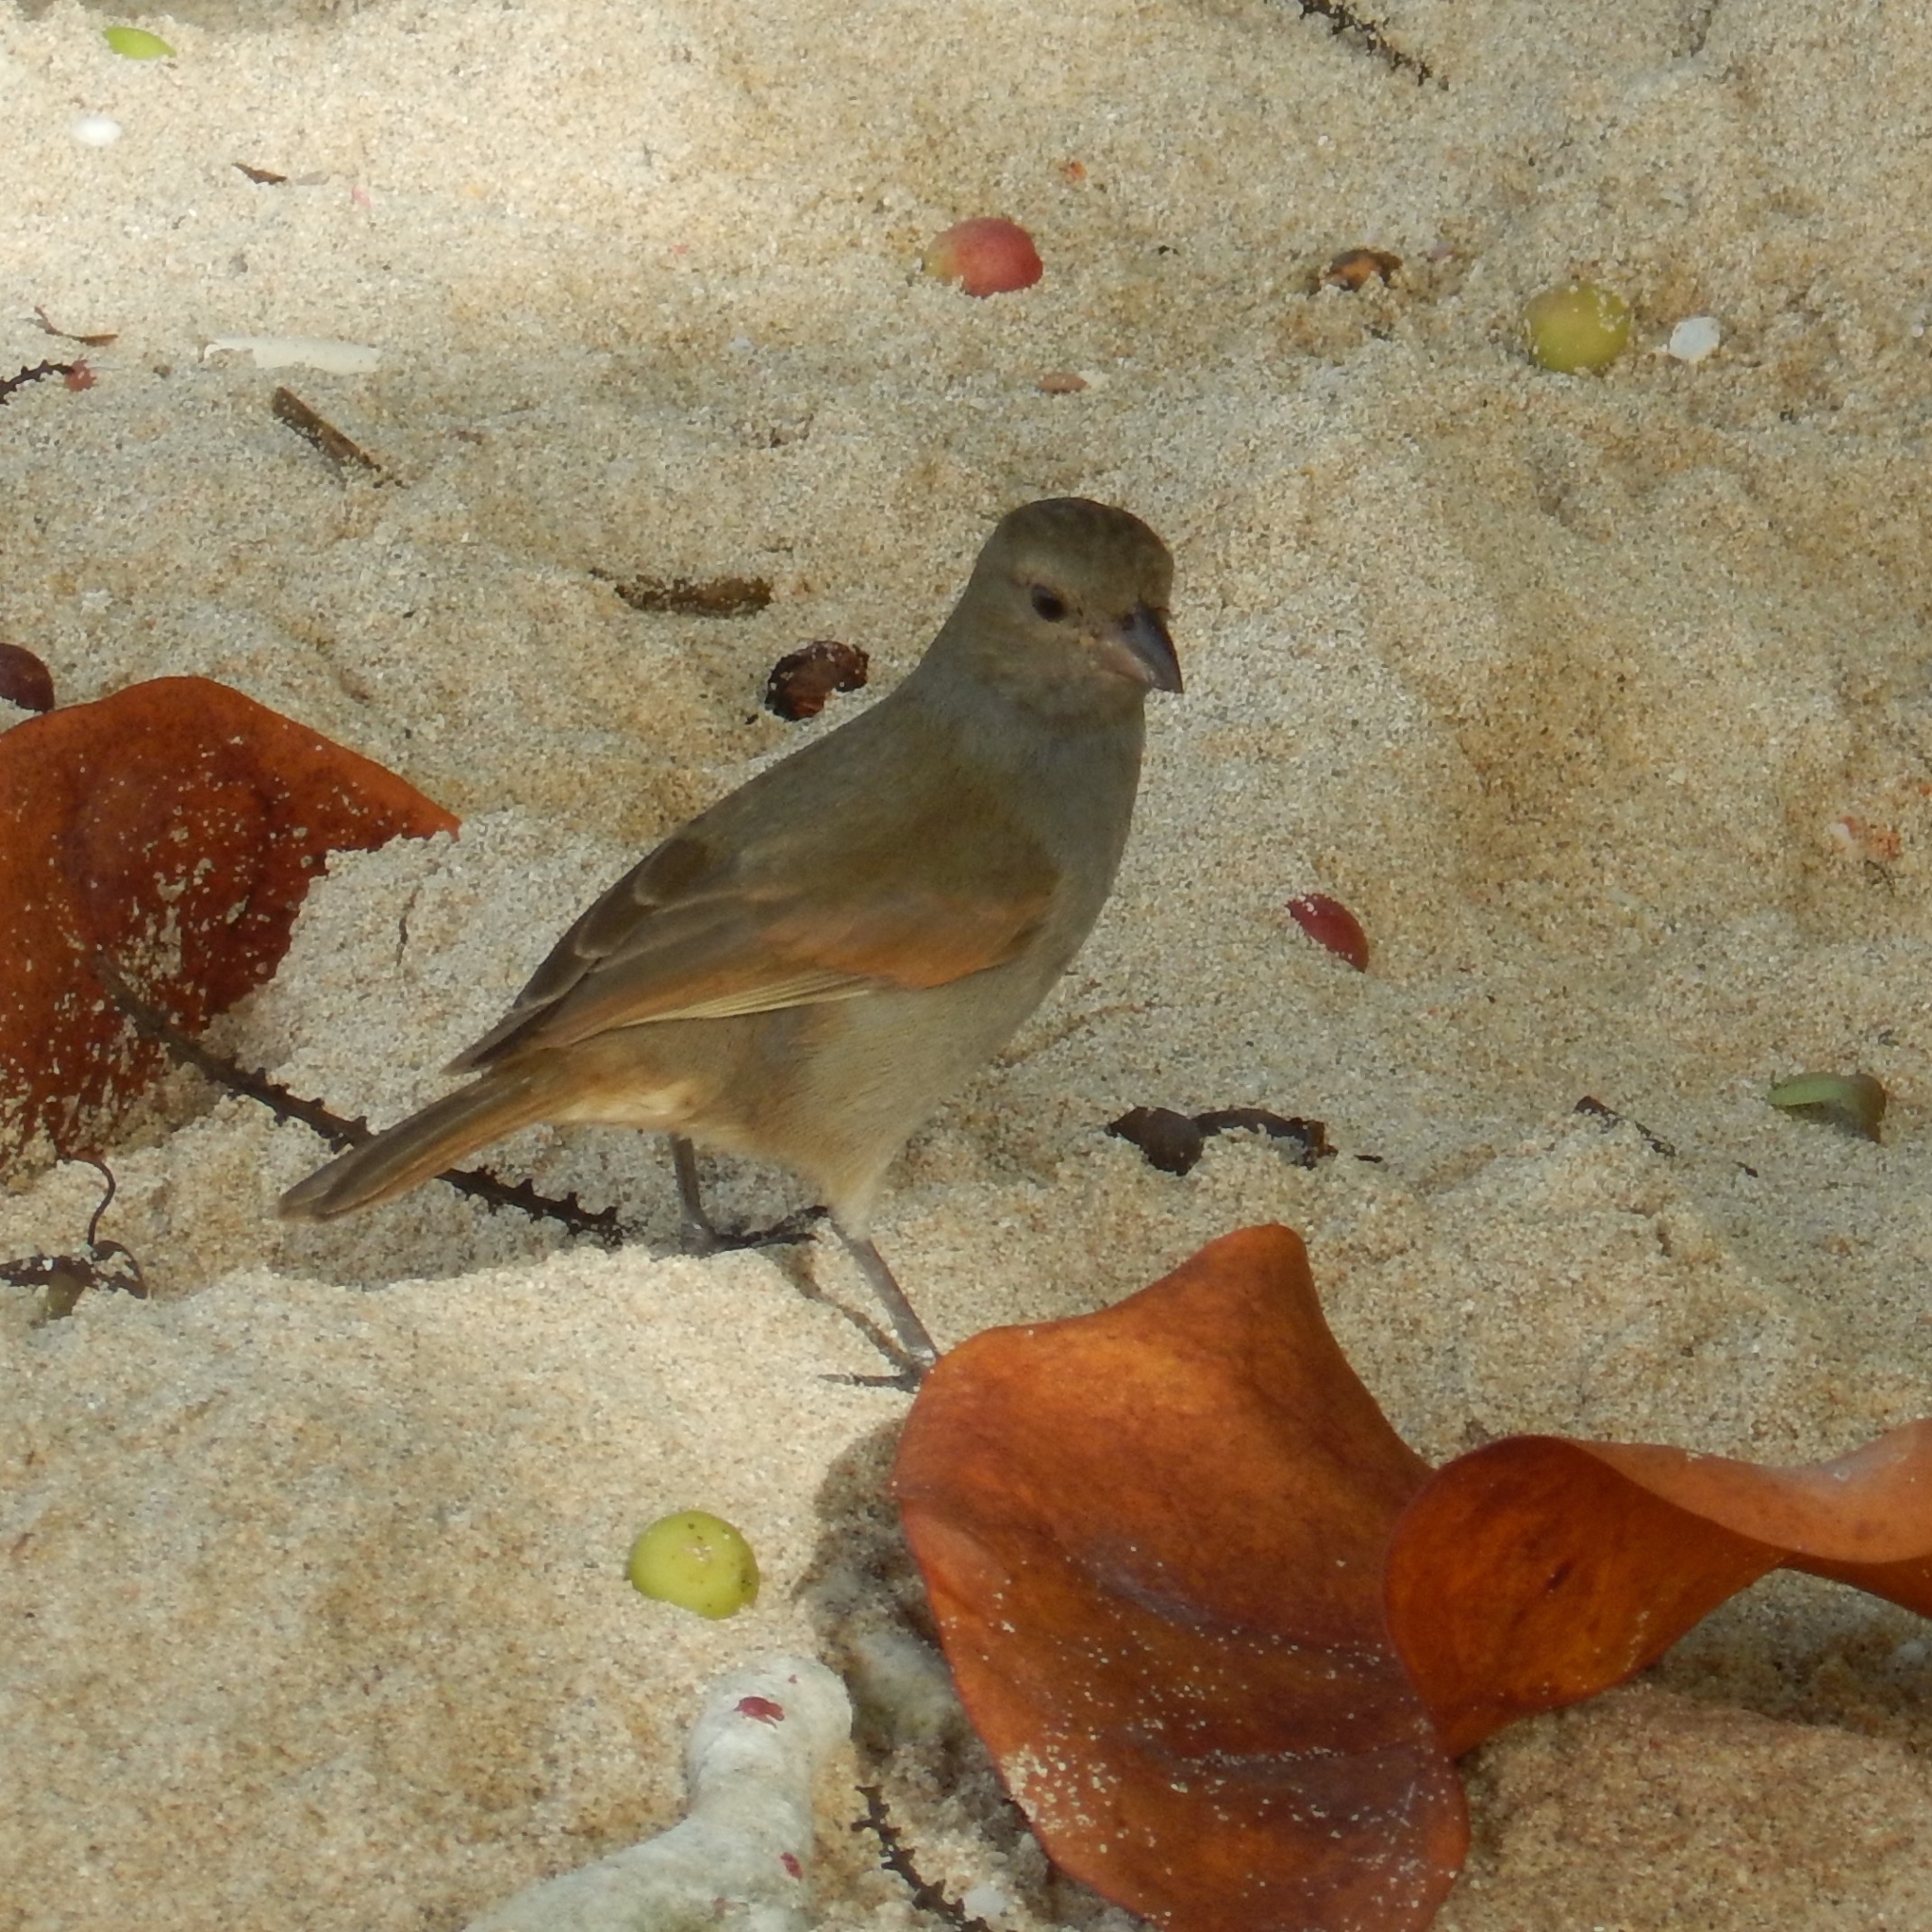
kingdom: Animalia
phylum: Chordata
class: Aves
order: Passeriformes
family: Thraupidae
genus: Loxigilla
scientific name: Loxigilla barbadensis
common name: Barbados bullfinch
